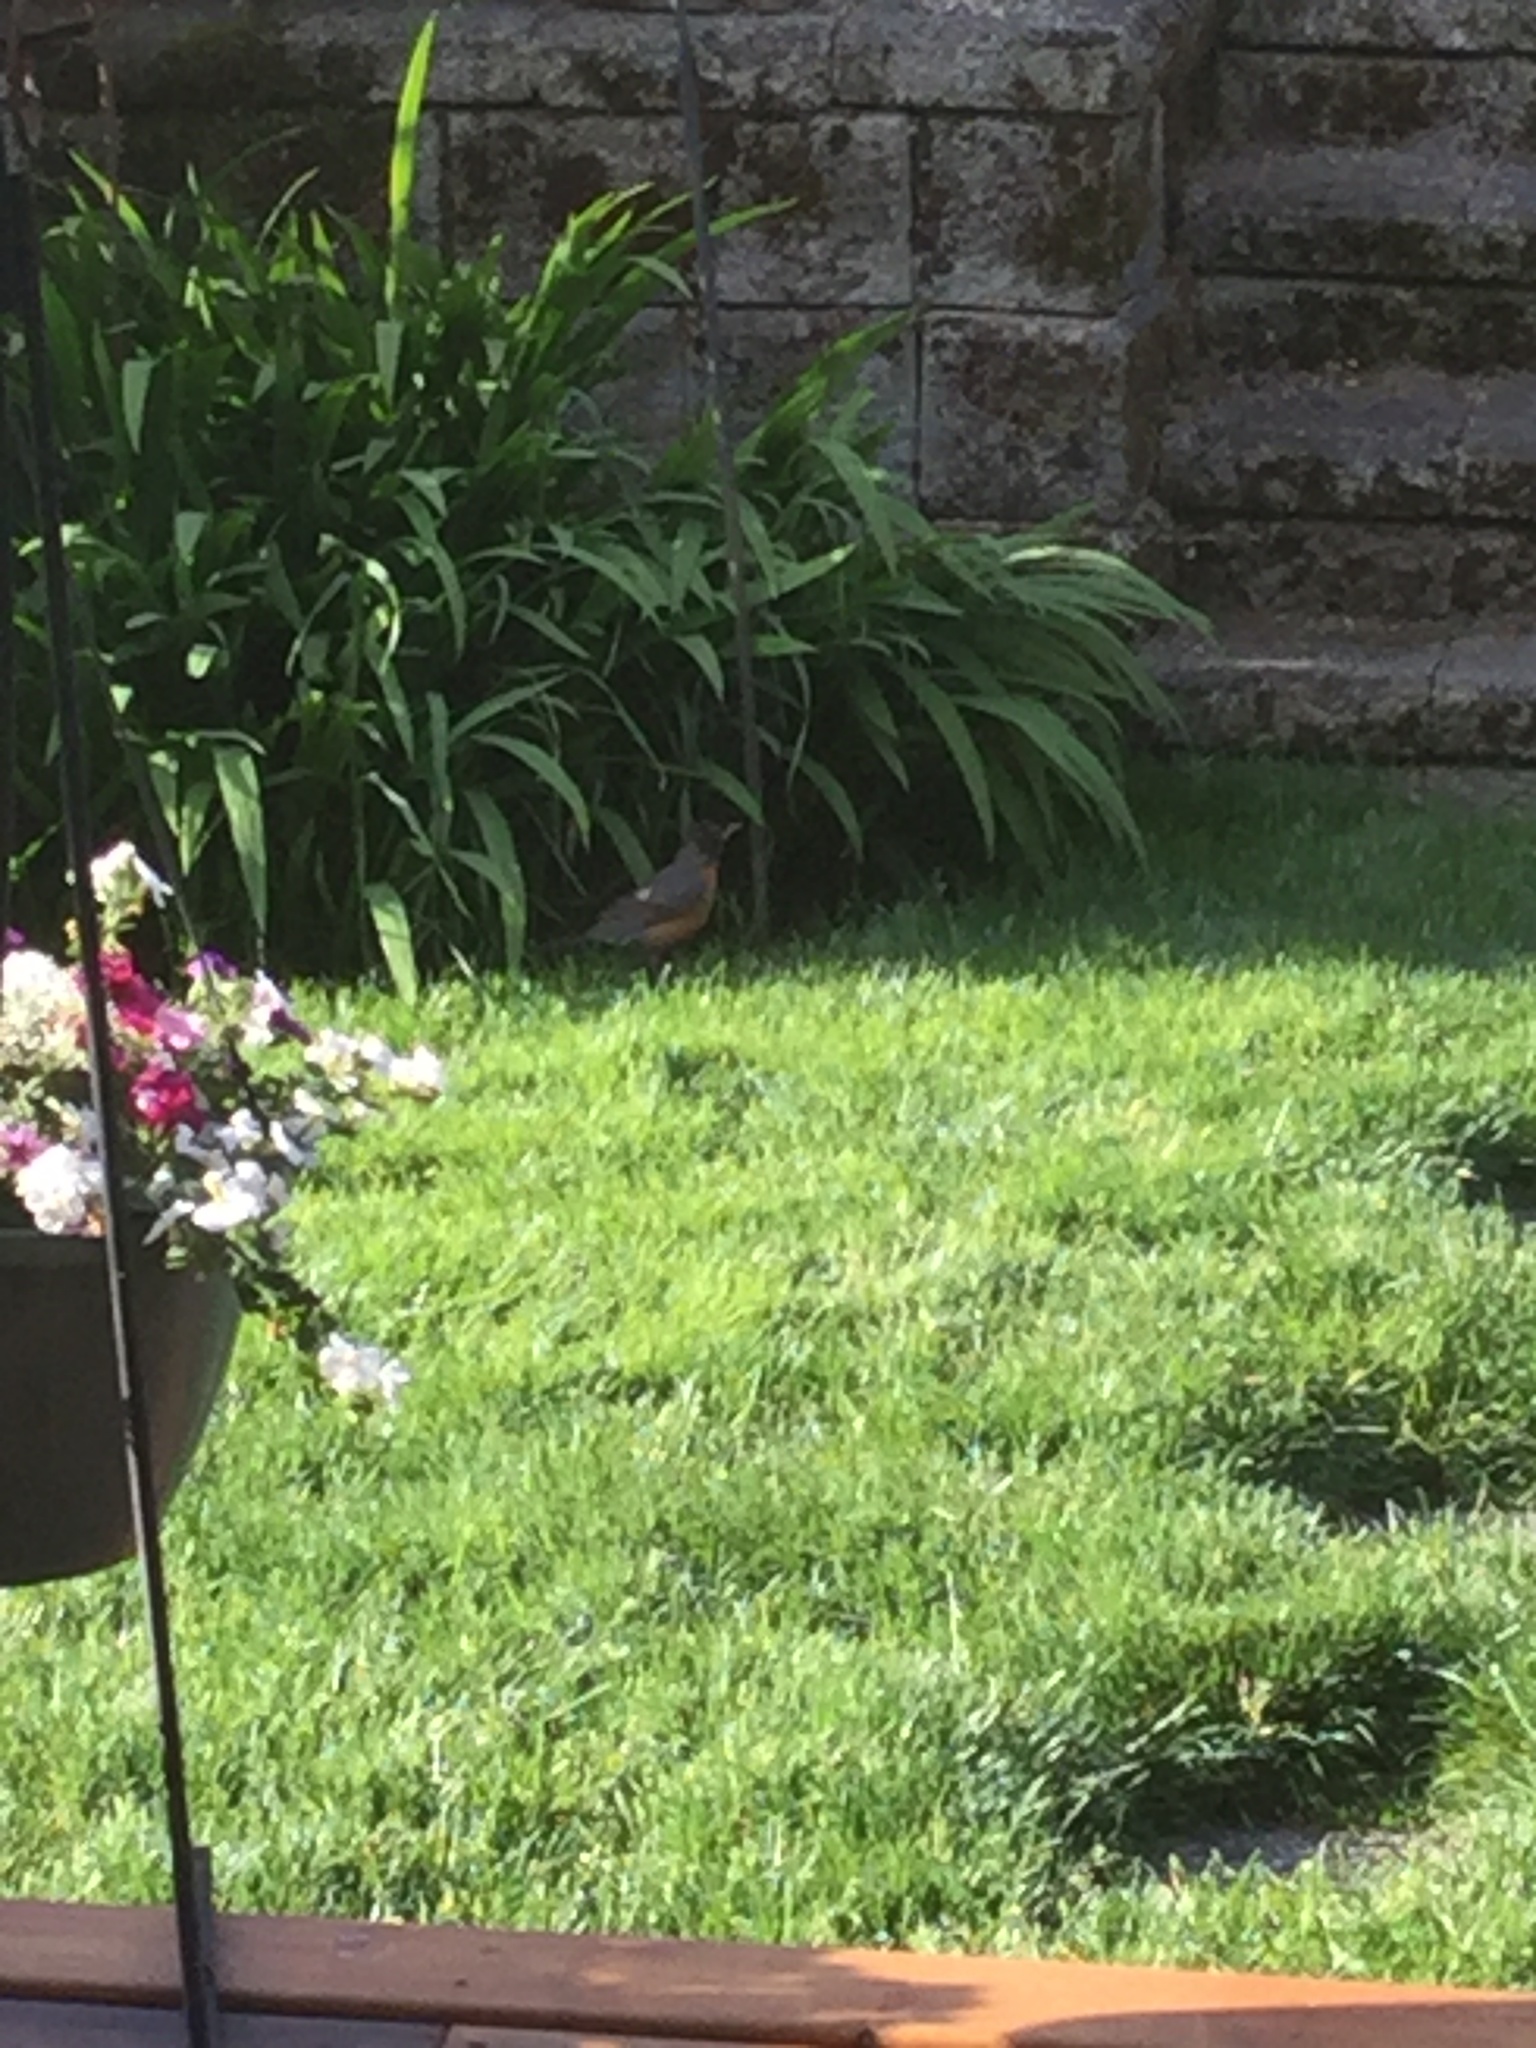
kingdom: Animalia
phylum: Chordata
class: Aves
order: Passeriformes
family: Turdidae
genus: Turdus
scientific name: Turdus migratorius
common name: American robin
